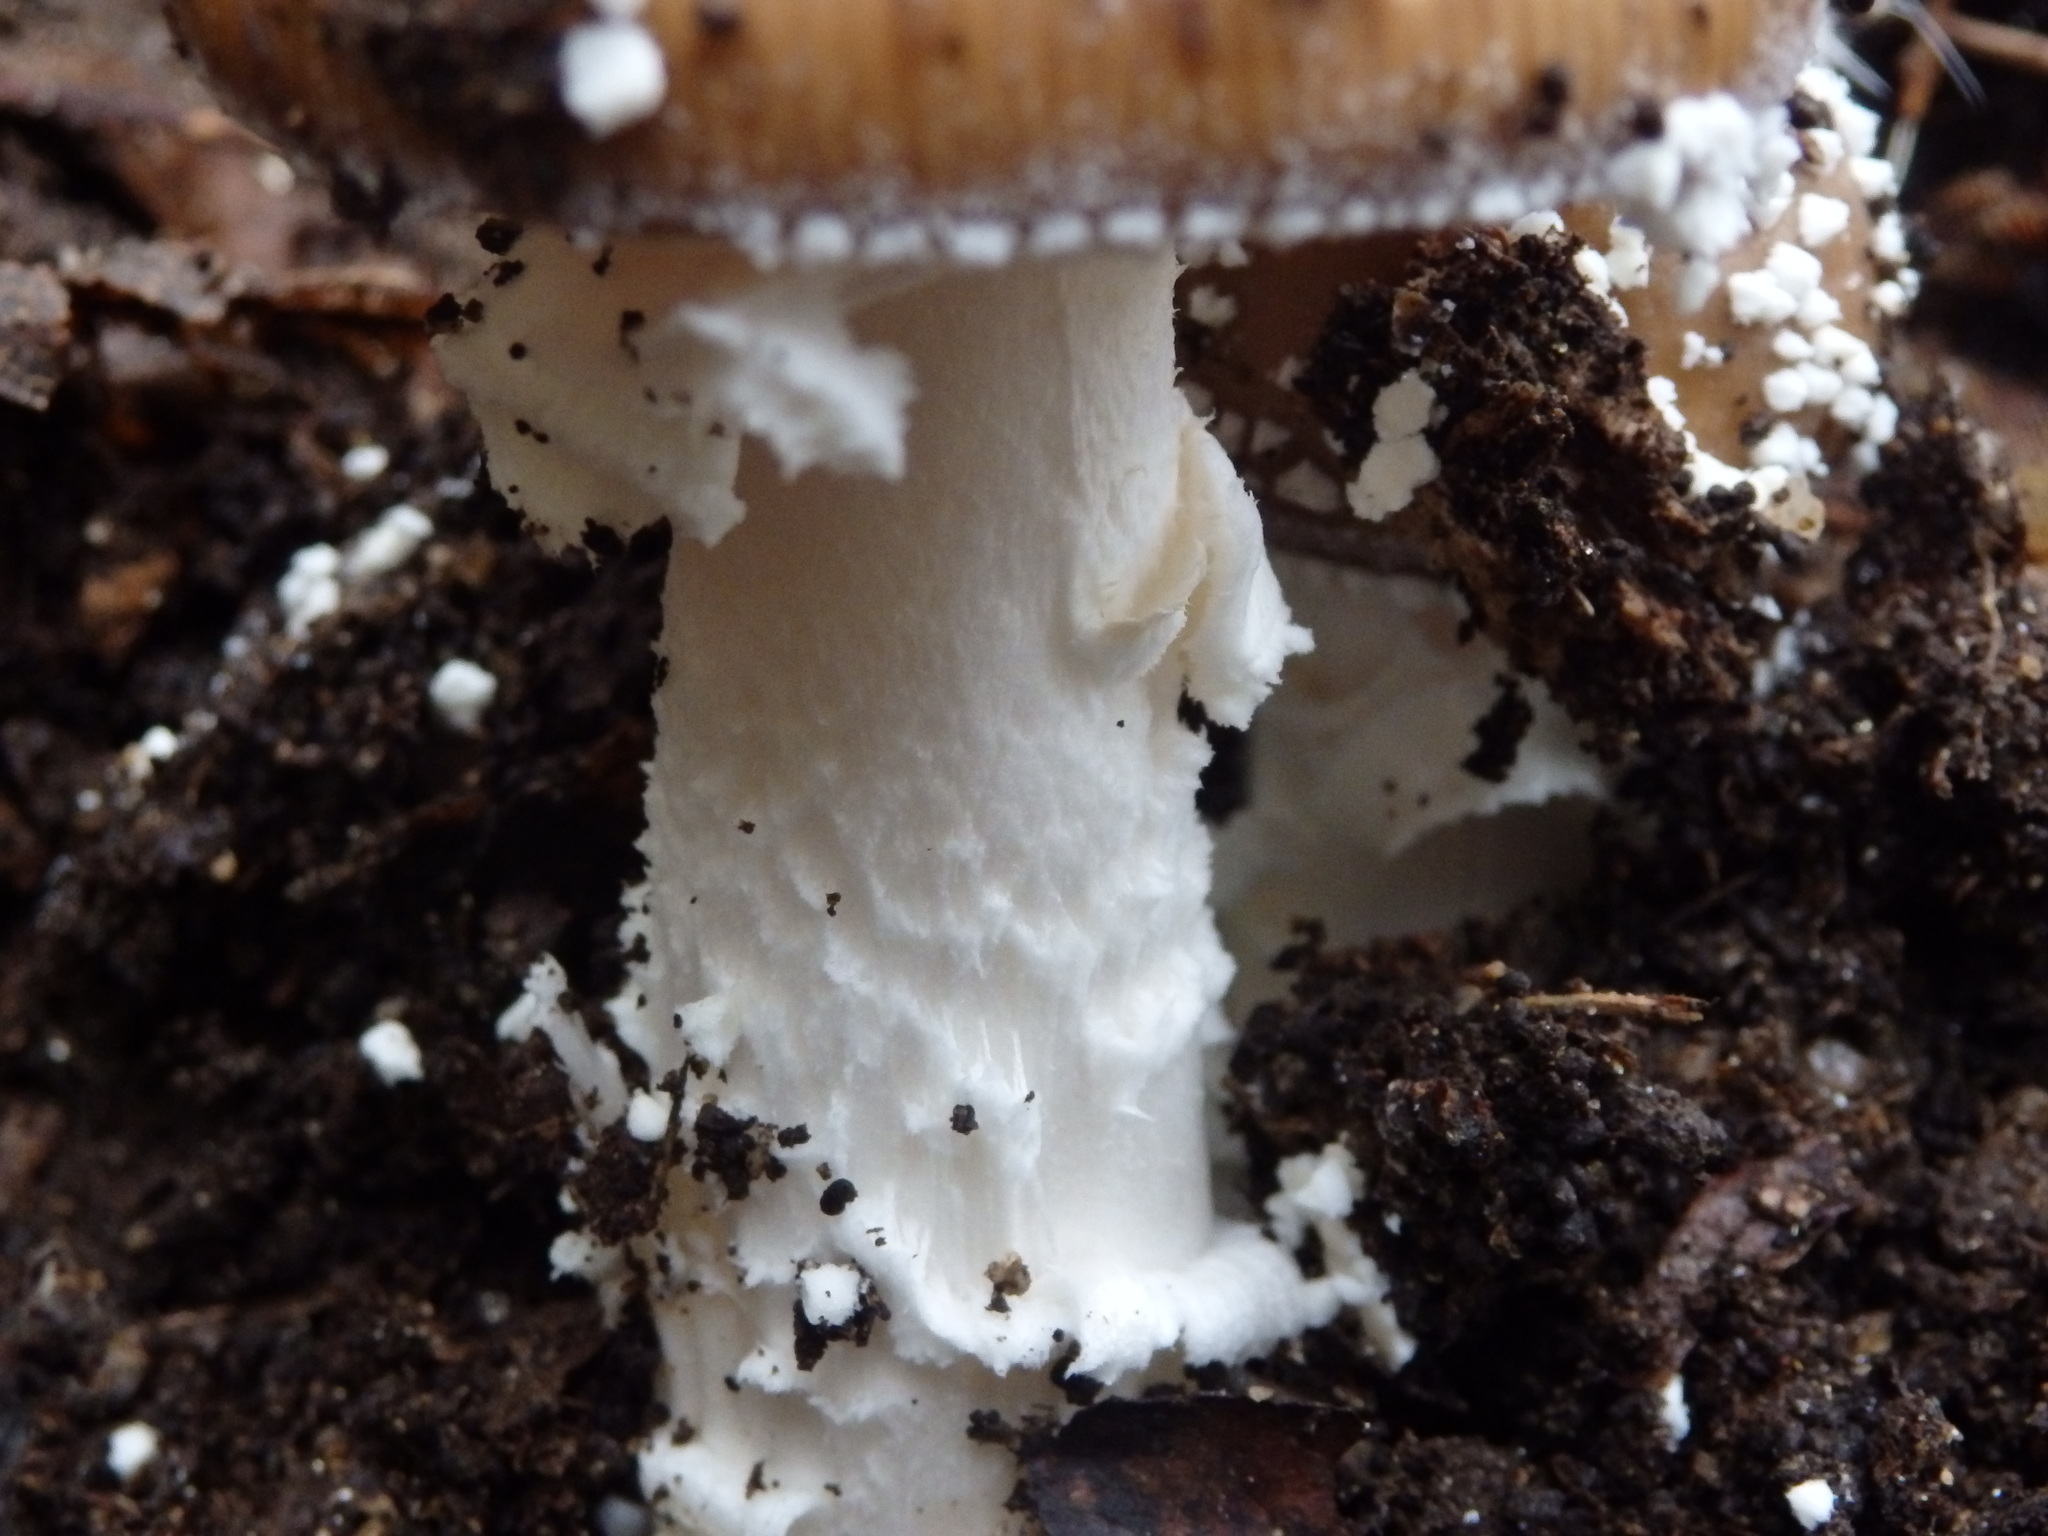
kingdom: Fungi
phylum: Basidiomycota
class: Agaricomycetes
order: Agaricales
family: Amanitaceae
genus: Amanita
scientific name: Amanita pantherina
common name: Panthercap
